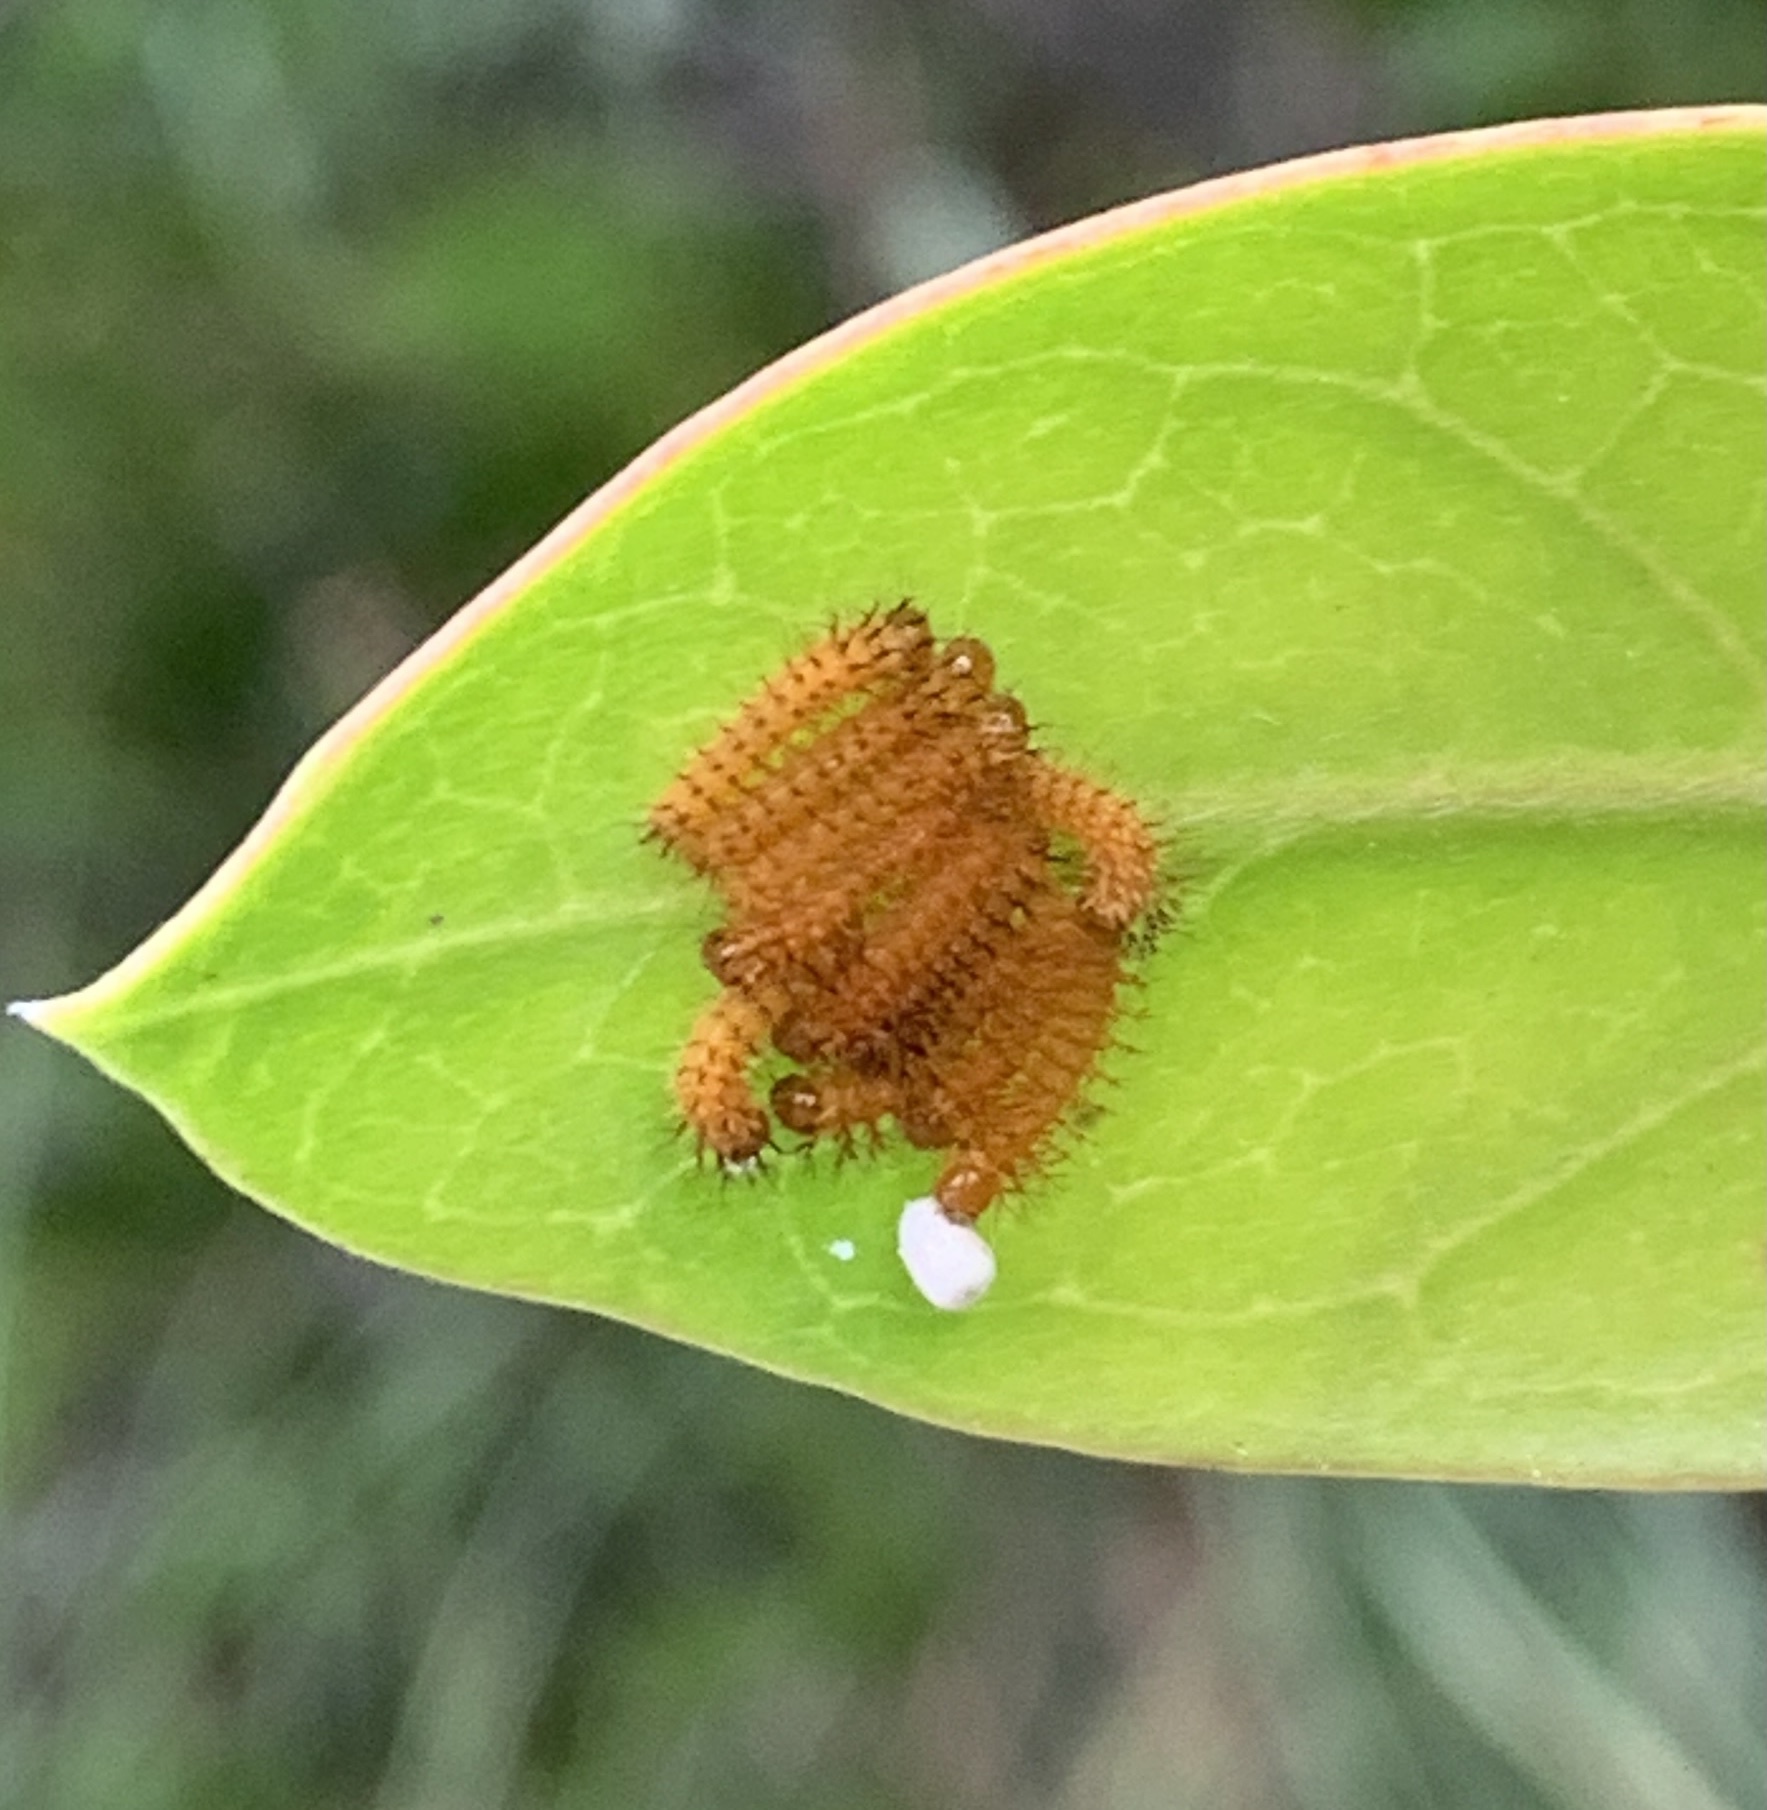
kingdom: Animalia
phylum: Arthropoda
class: Insecta
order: Lepidoptera
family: Saturniidae
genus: Automeris
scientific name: Automeris io
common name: Io moth
